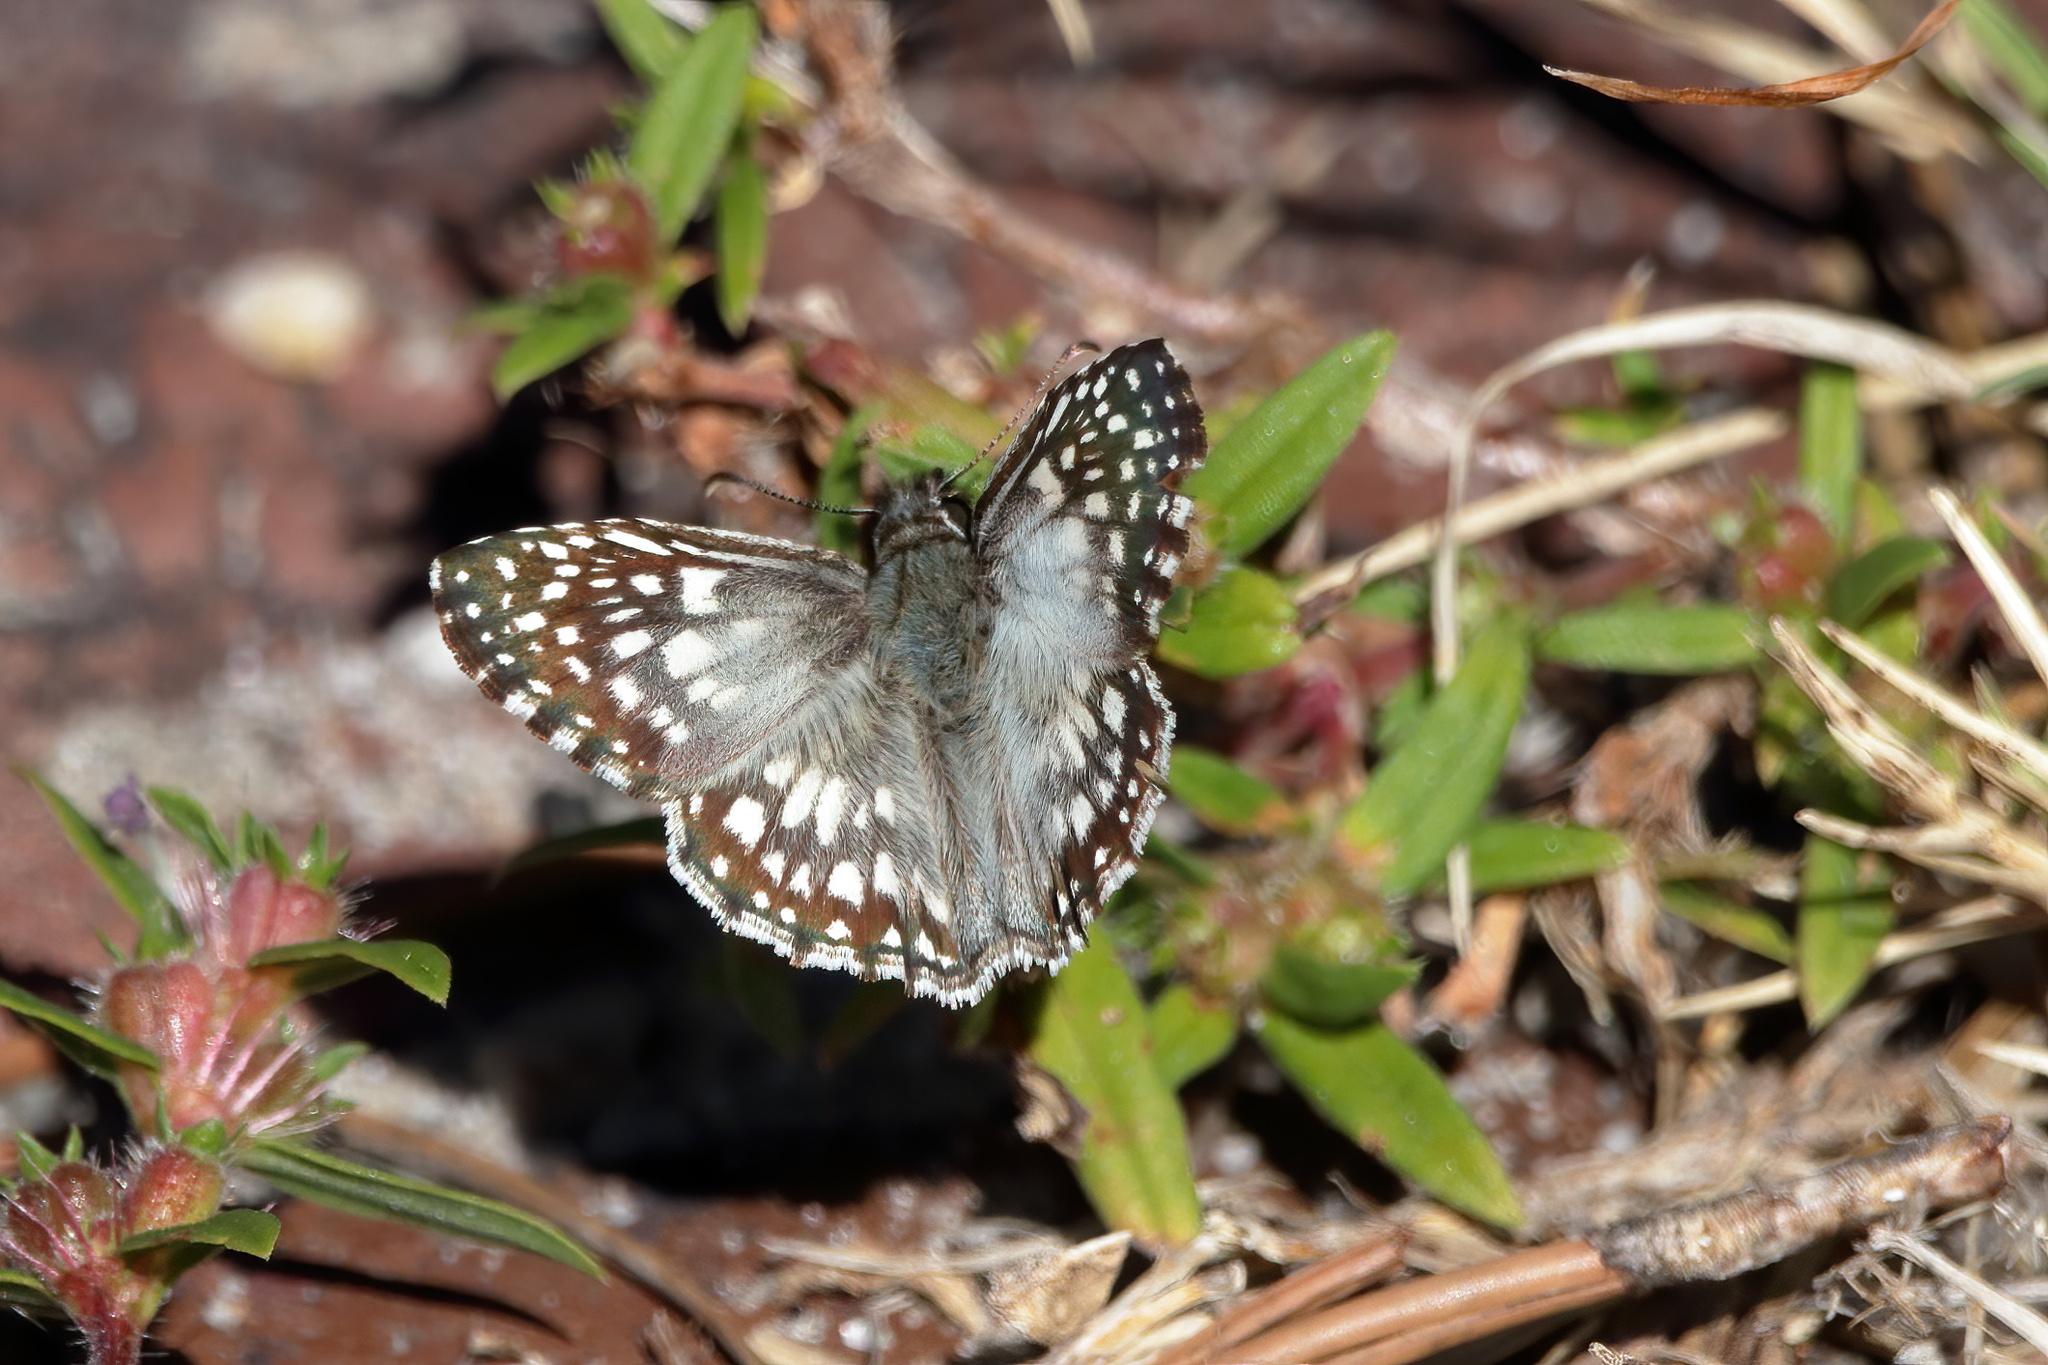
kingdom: Animalia
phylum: Arthropoda
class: Insecta
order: Lepidoptera
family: Hesperiidae
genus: Pyrgus
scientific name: Pyrgus oileus
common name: Tropical checkered-skipper
